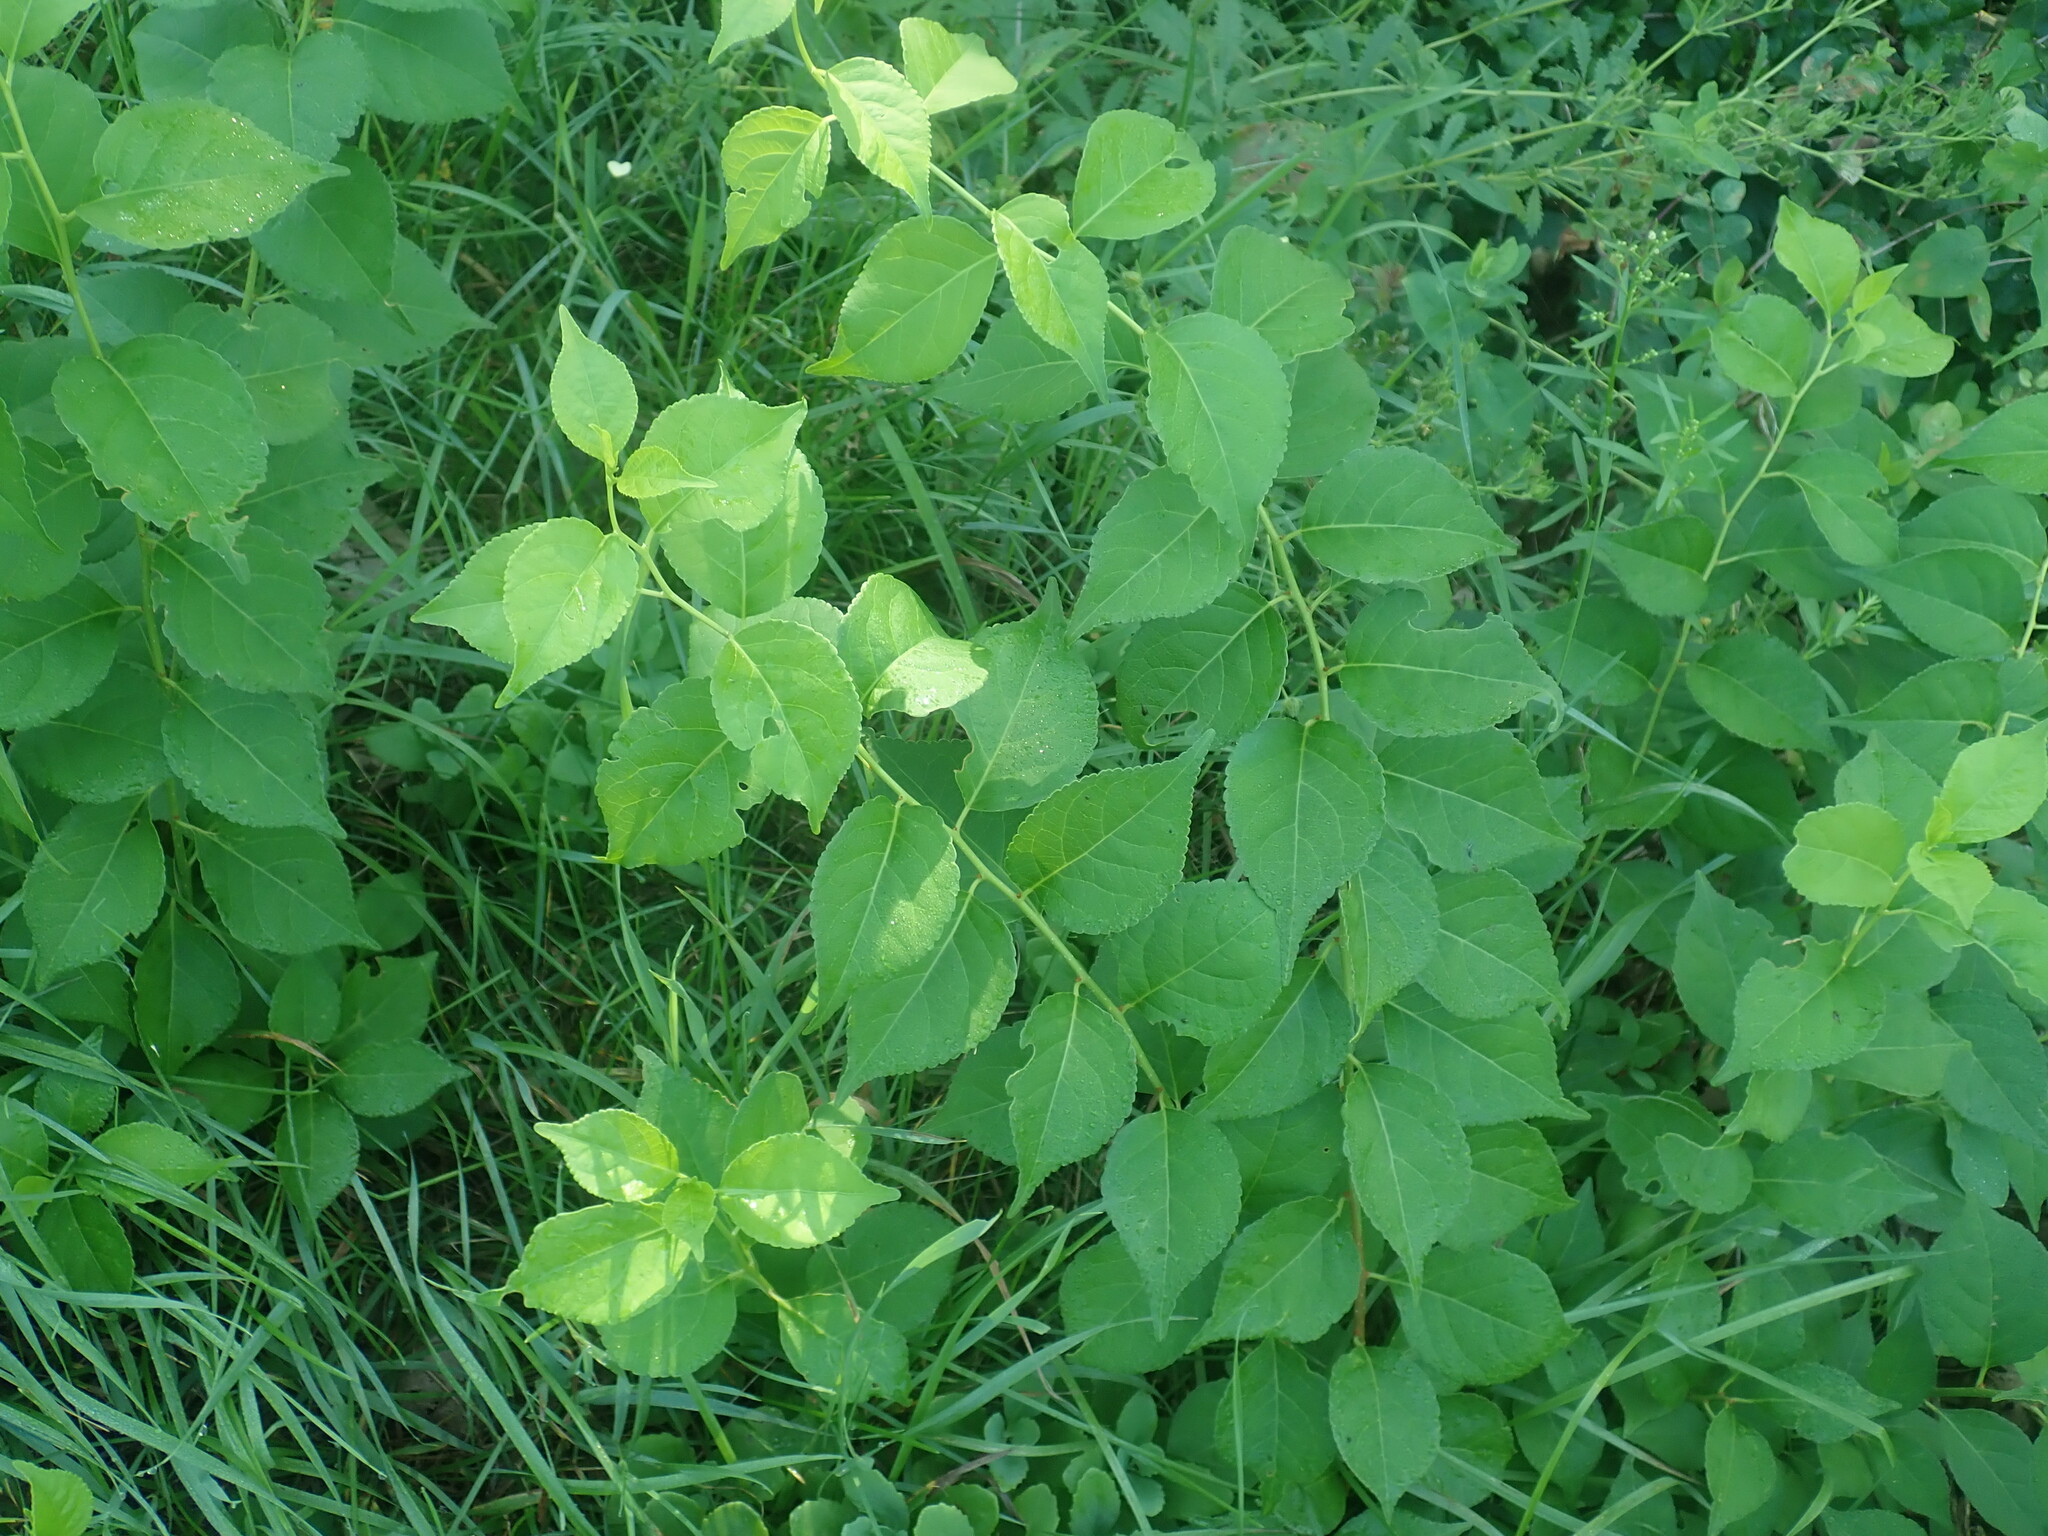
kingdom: Plantae
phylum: Tracheophyta
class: Magnoliopsida
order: Celastrales
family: Celastraceae
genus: Celastrus
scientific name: Celastrus orbiculatus
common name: Oriental bittersweet
